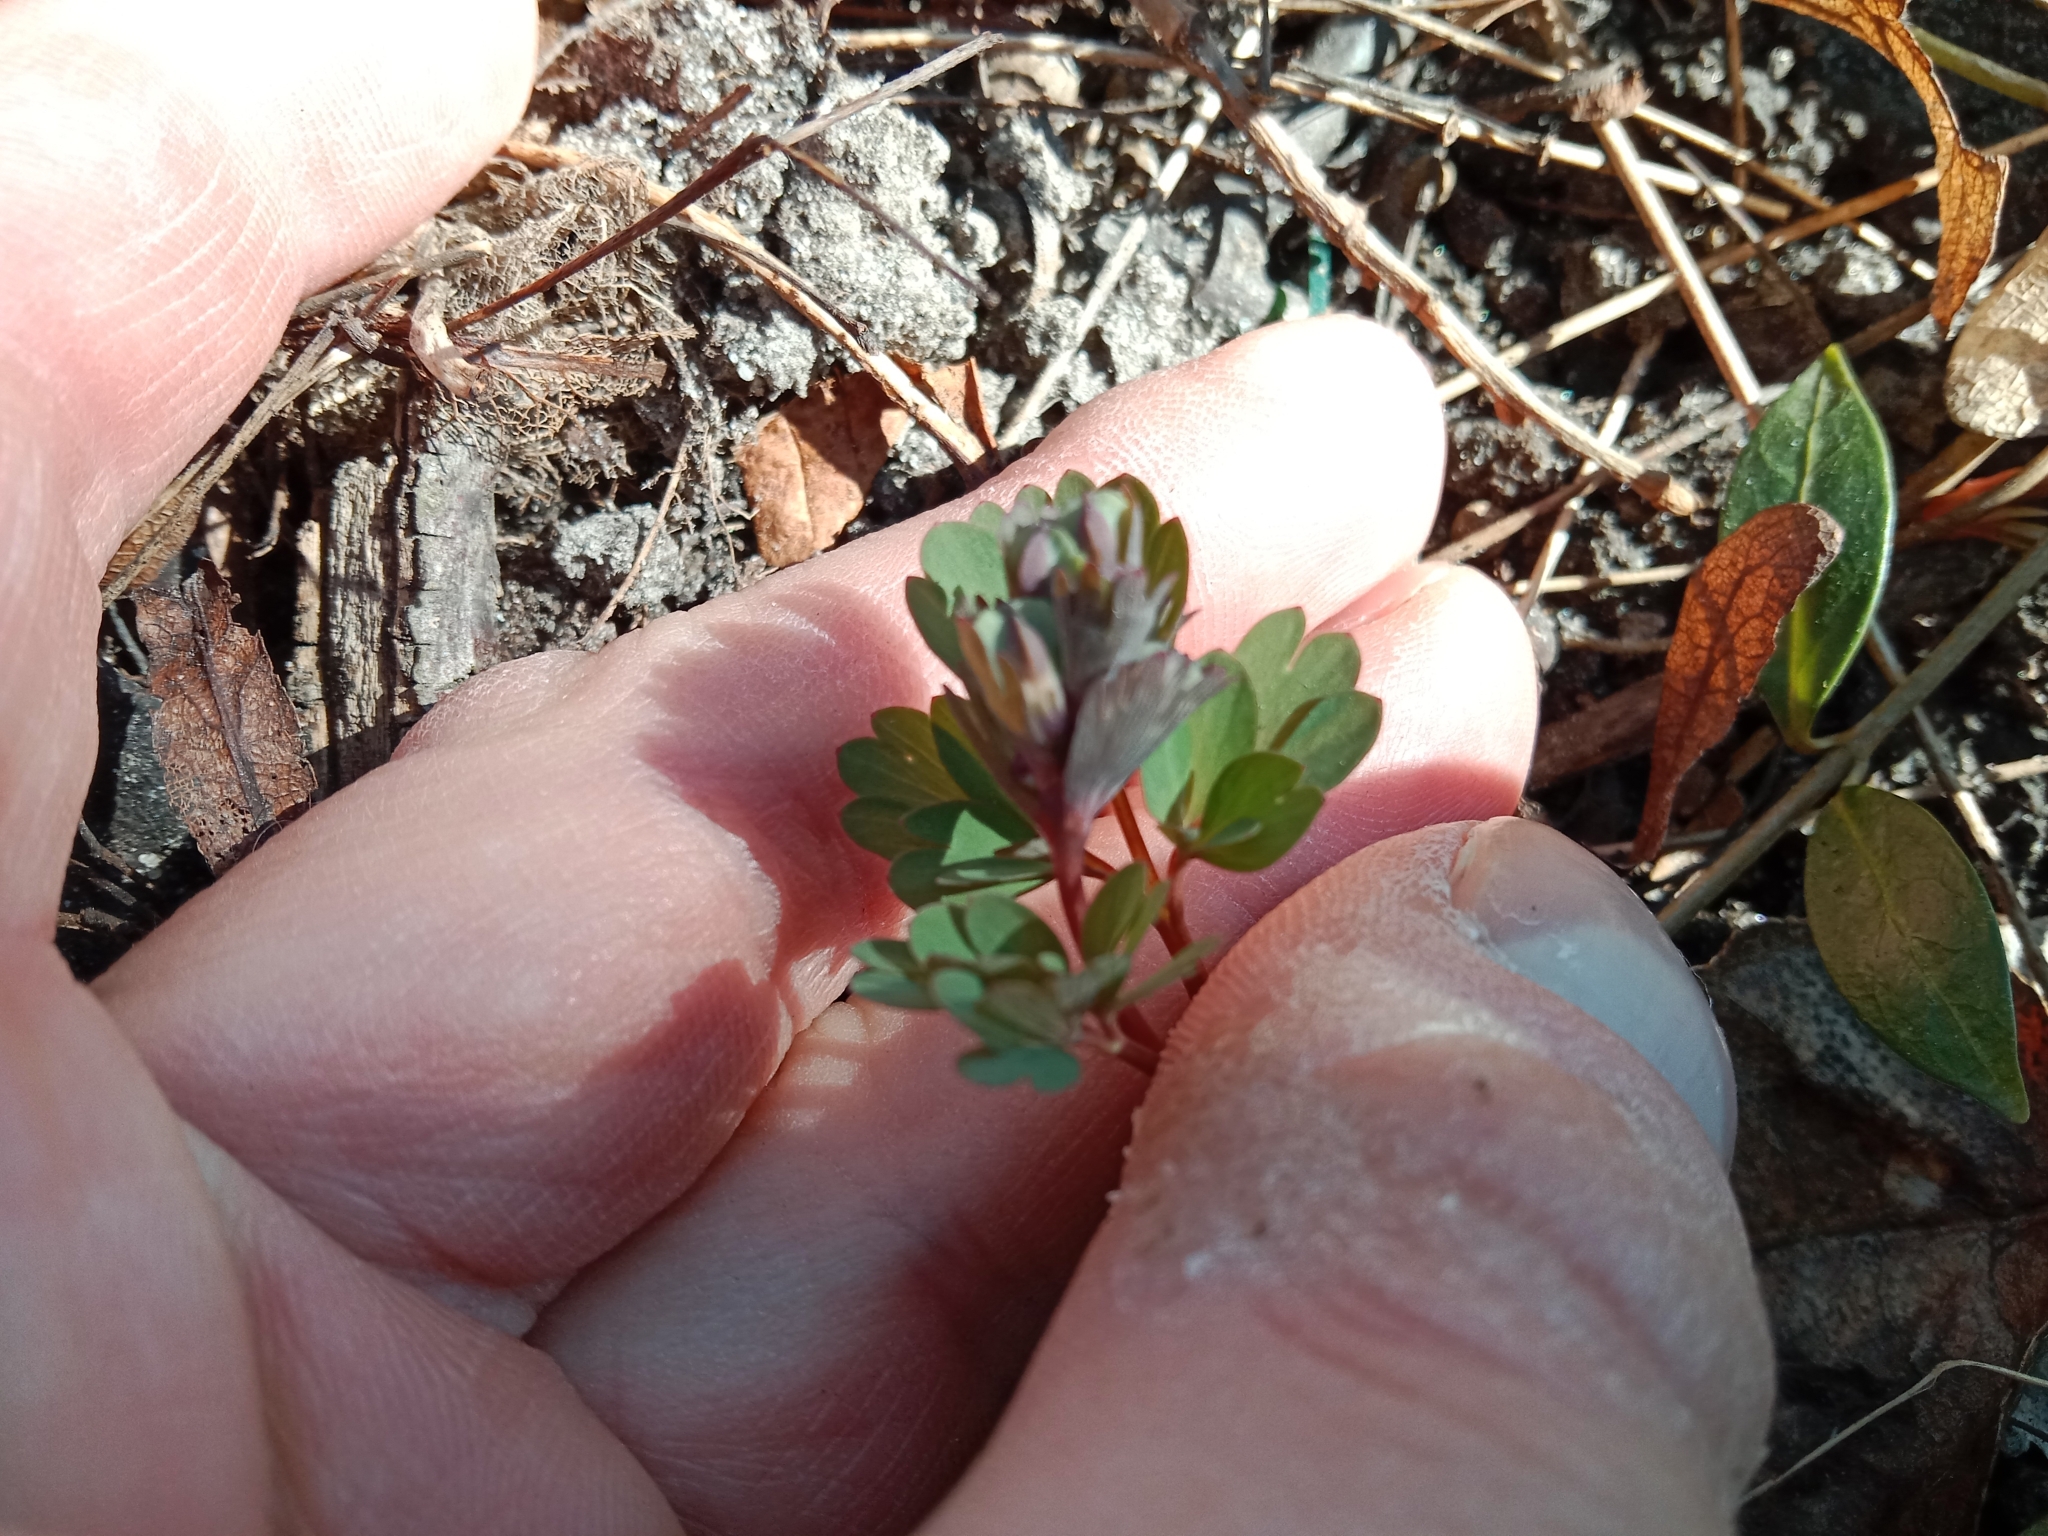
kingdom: Plantae
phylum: Tracheophyta
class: Magnoliopsida
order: Ranunculales
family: Papaveraceae
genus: Corydalis
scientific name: Corydalis solida
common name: Bird-in-a-bush
